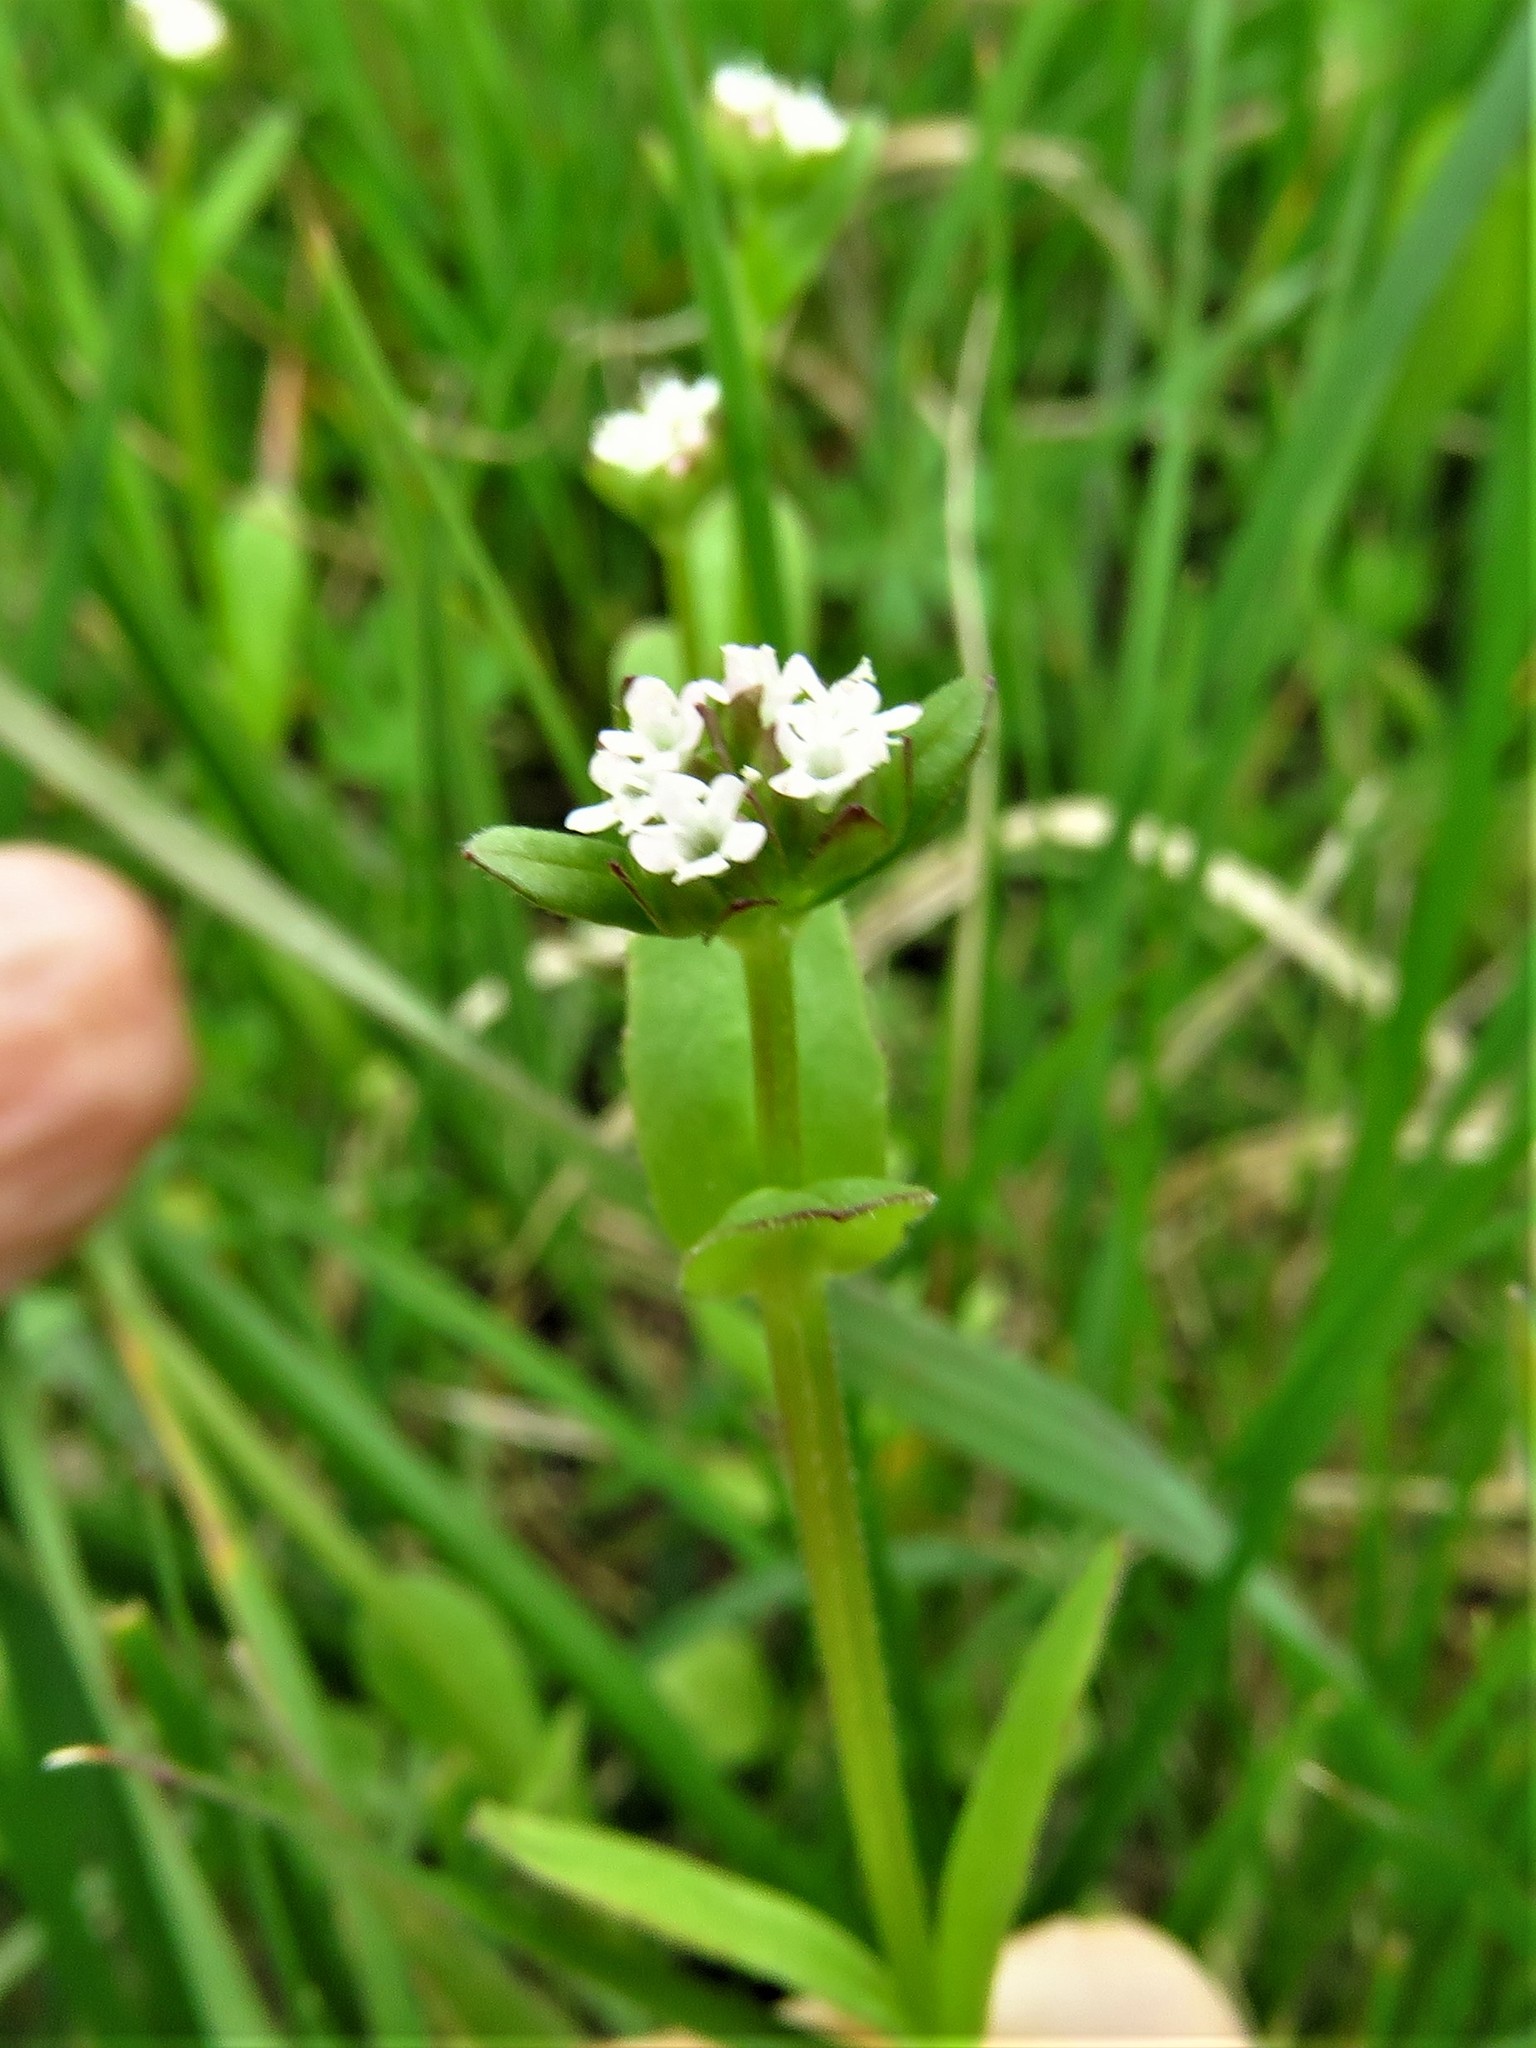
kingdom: Plantae
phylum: Tracheophyta
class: Magnoliopsida
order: Dipsacales
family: Caprifoliaceae
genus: Valerianella
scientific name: Valerianella radiata
